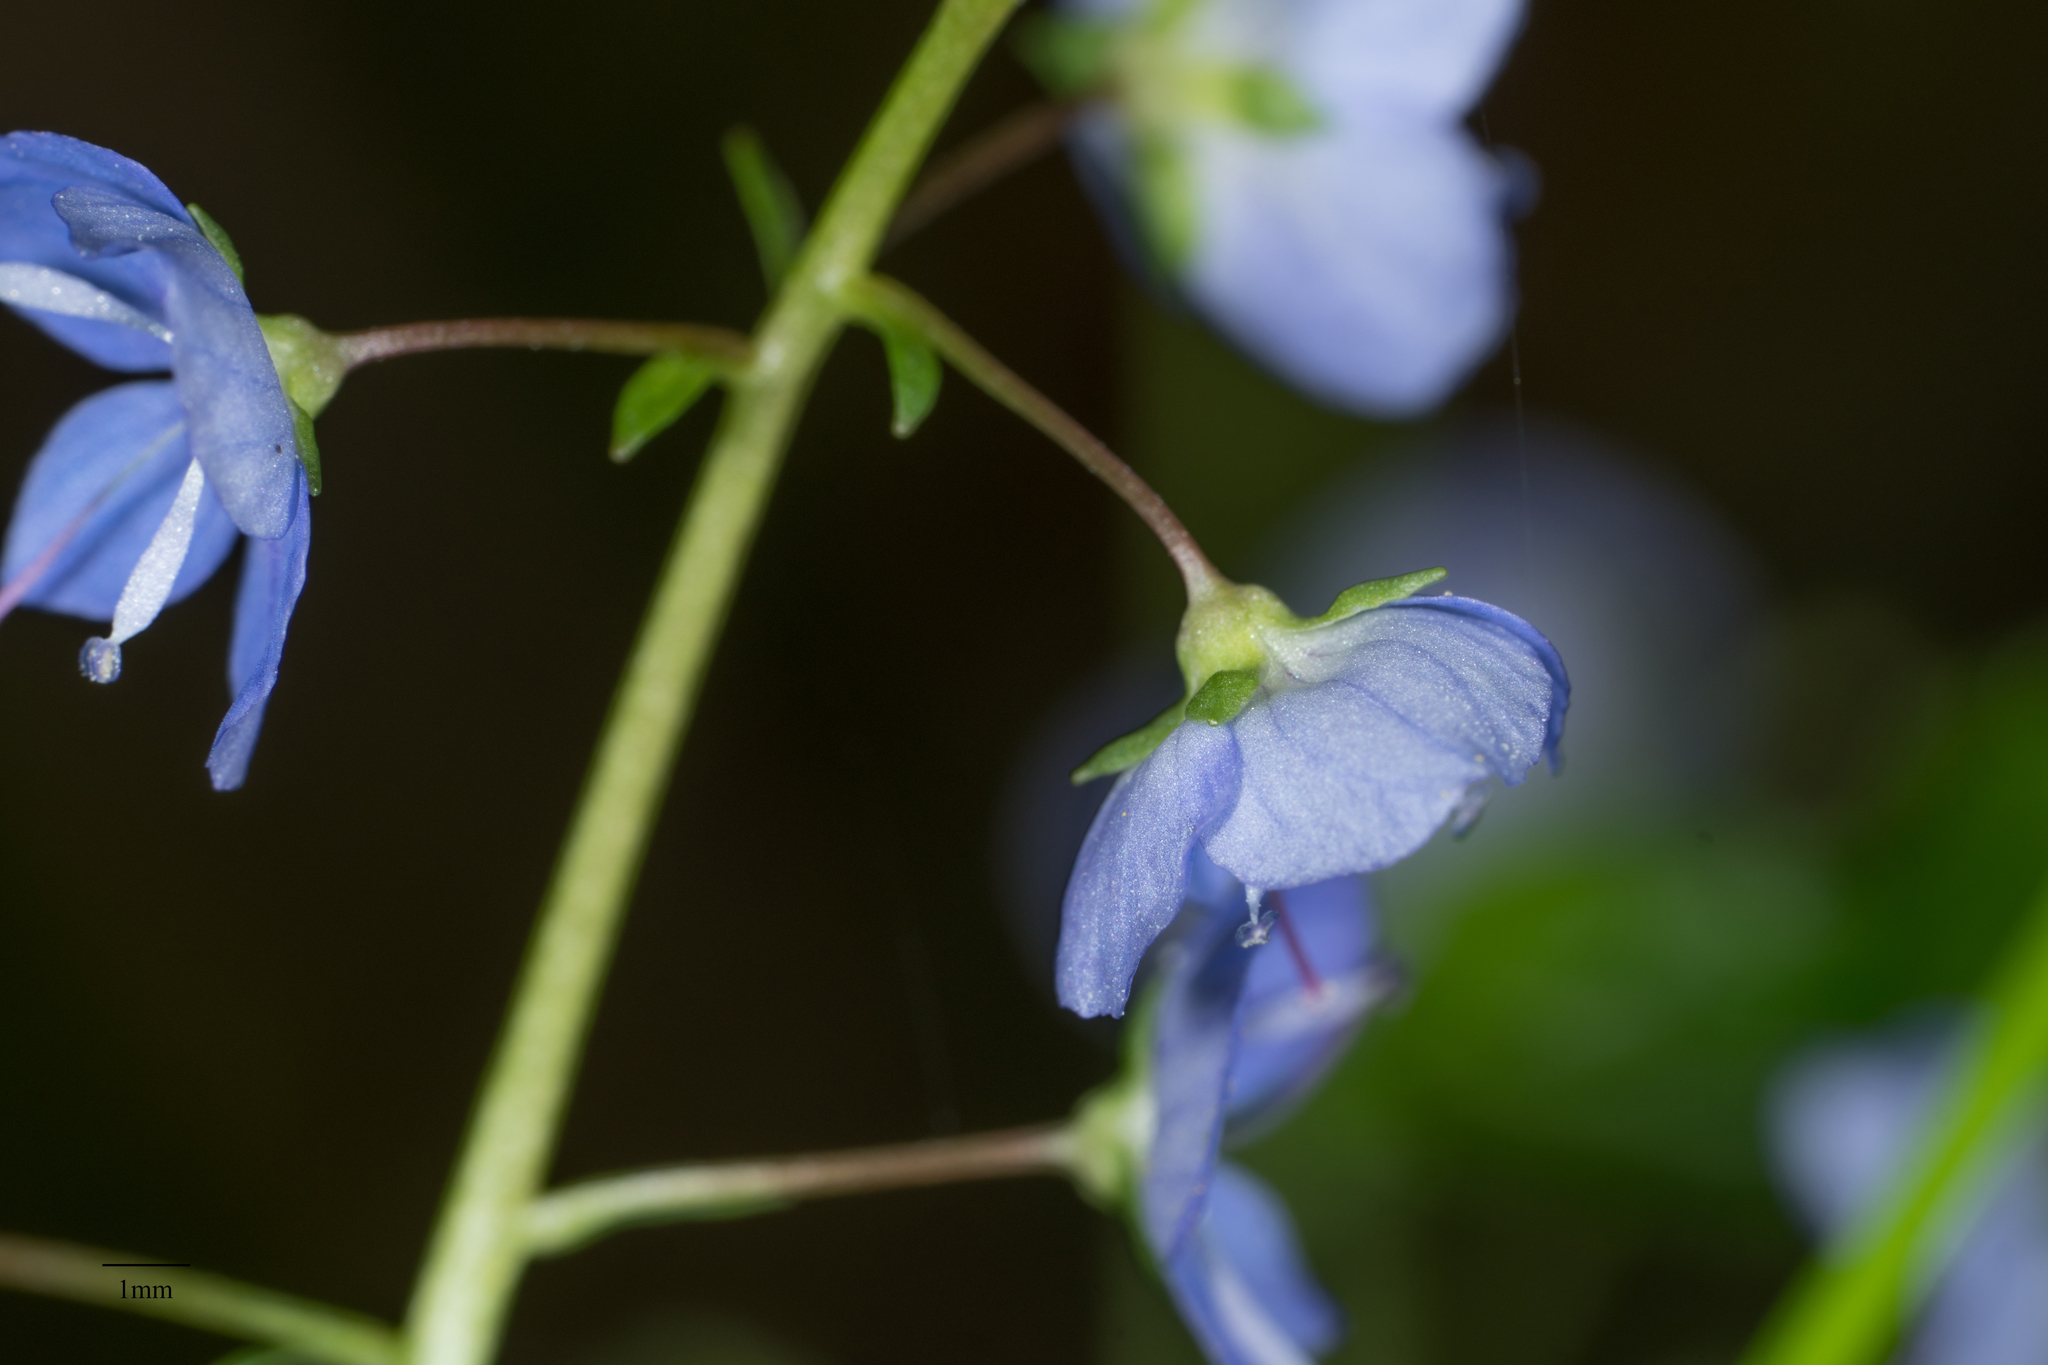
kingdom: Plantae
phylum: Tracheophyta
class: Magnoliopsida
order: Lamiales
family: Plantaginaceae
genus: Veronica
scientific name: Veronica americana
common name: American brooklime
